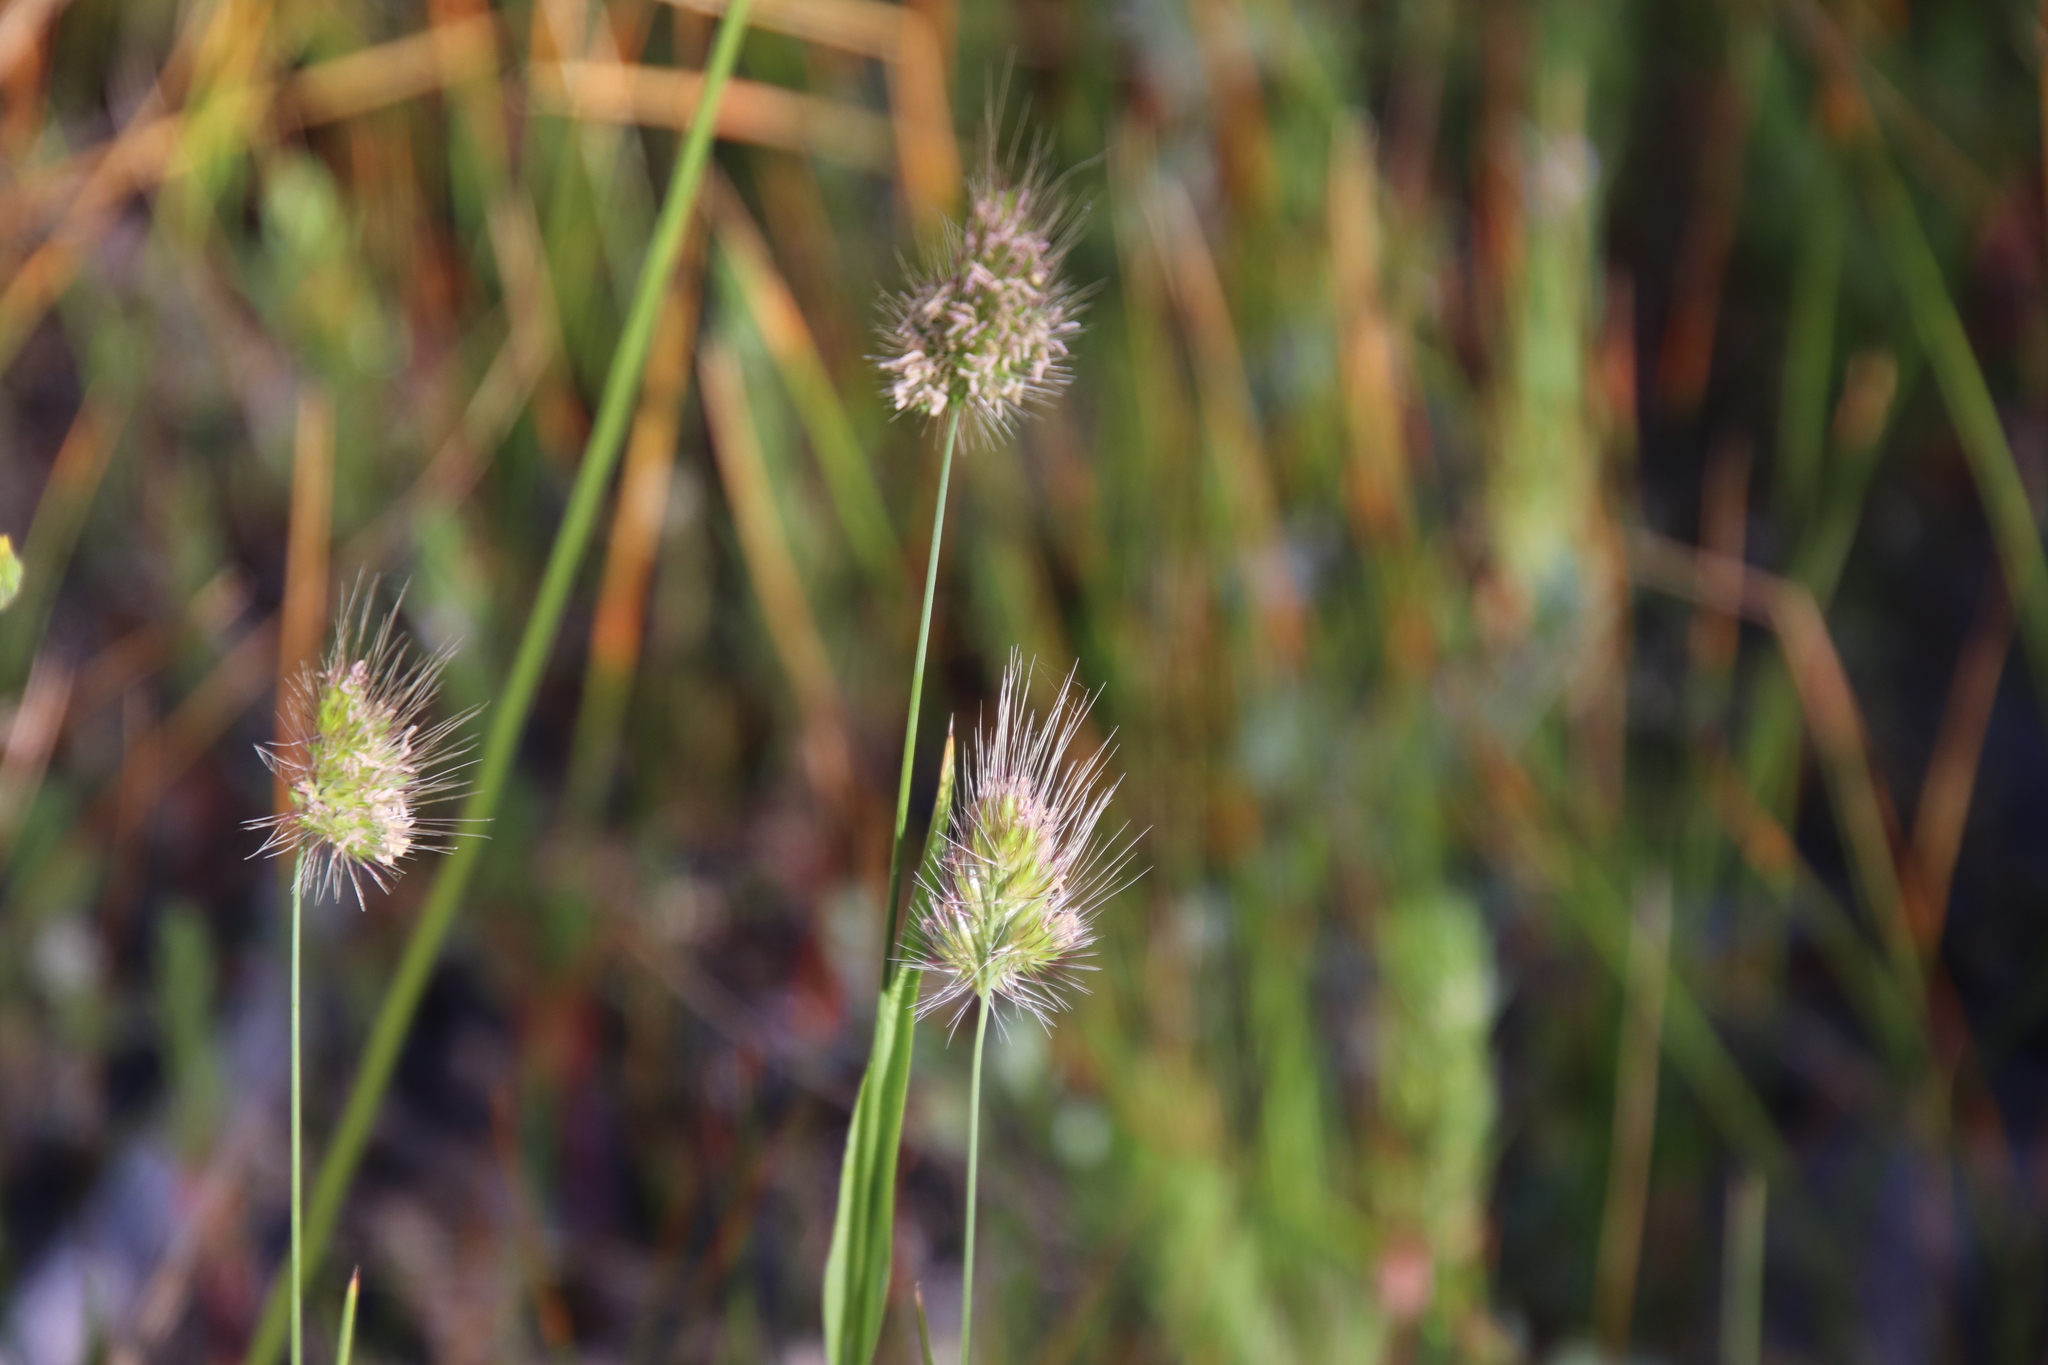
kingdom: Plantae
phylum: Tracheophyta
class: Liliopsida
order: Poales
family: Poaceae
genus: Cynosurus
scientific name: Cynosurus echinatus
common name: Rough dog's-tail
